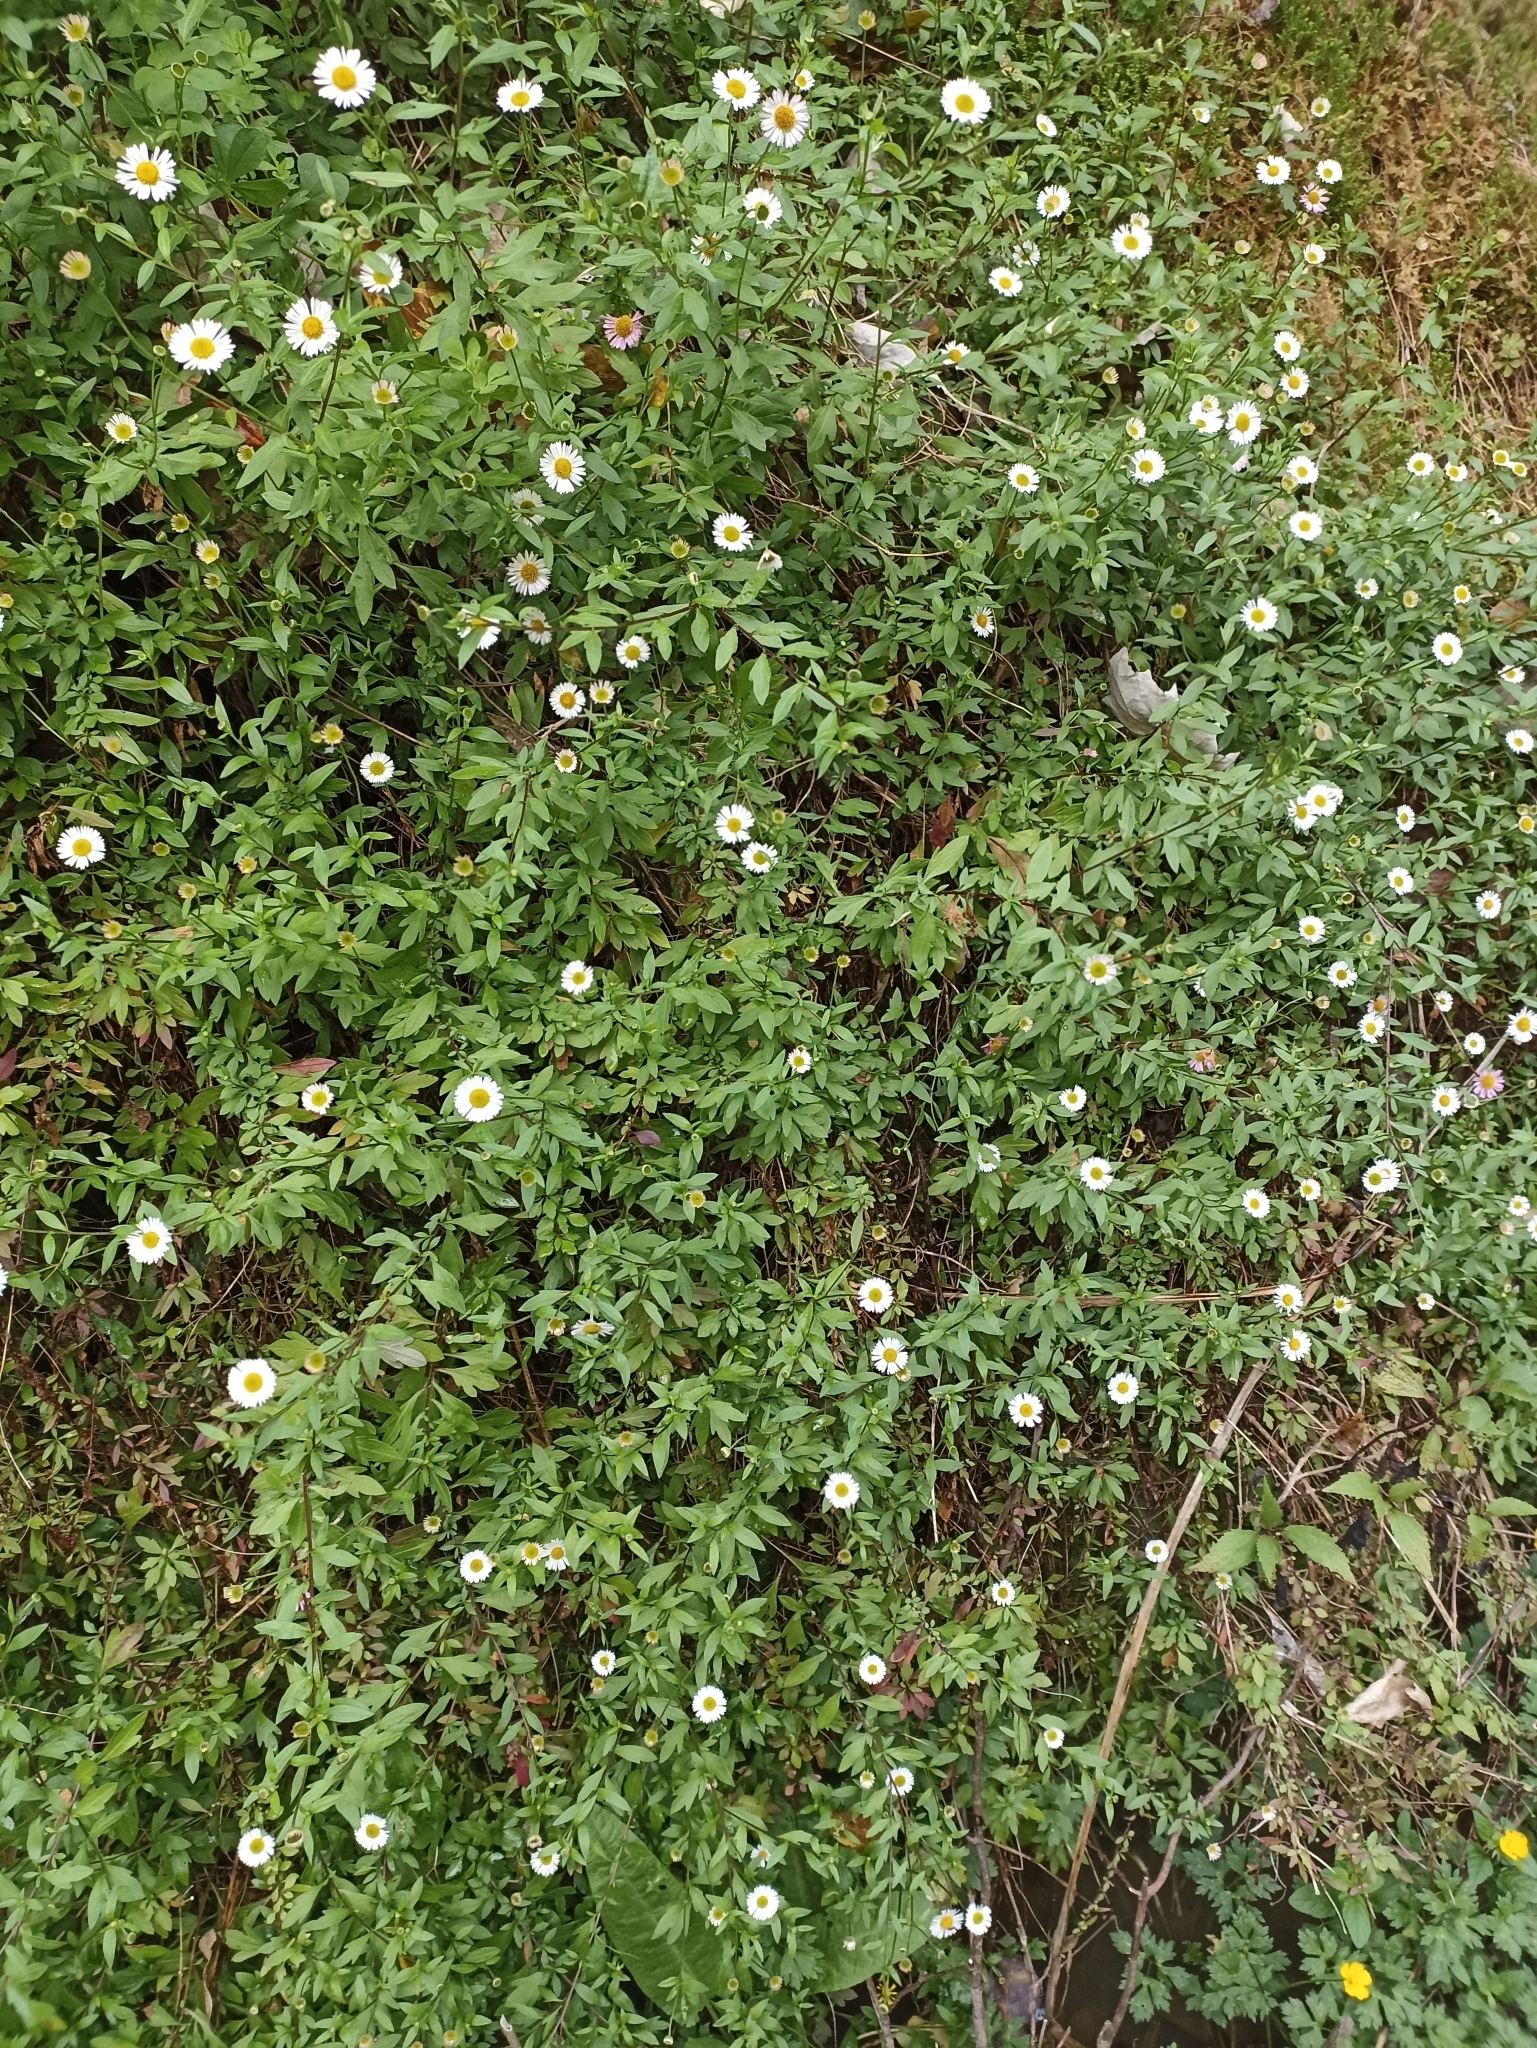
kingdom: Plantae
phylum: Tracheophyta
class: Magnoliopsida
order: Asterales
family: Asteraceae
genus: Erigeron
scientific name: Erigeron karvinskianus
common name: Mexican fleabane
